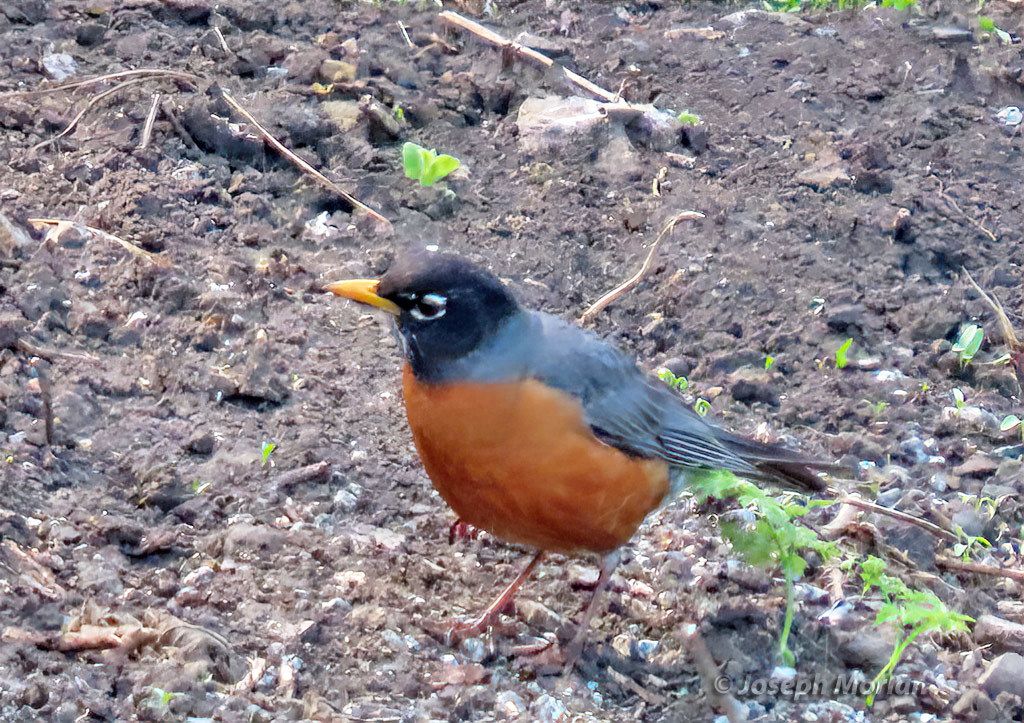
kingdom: Animalia
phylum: Chordata
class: Aves
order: Passeriformes
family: Turdidae
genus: Turdus
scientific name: Turdus migratorius
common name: American robin
